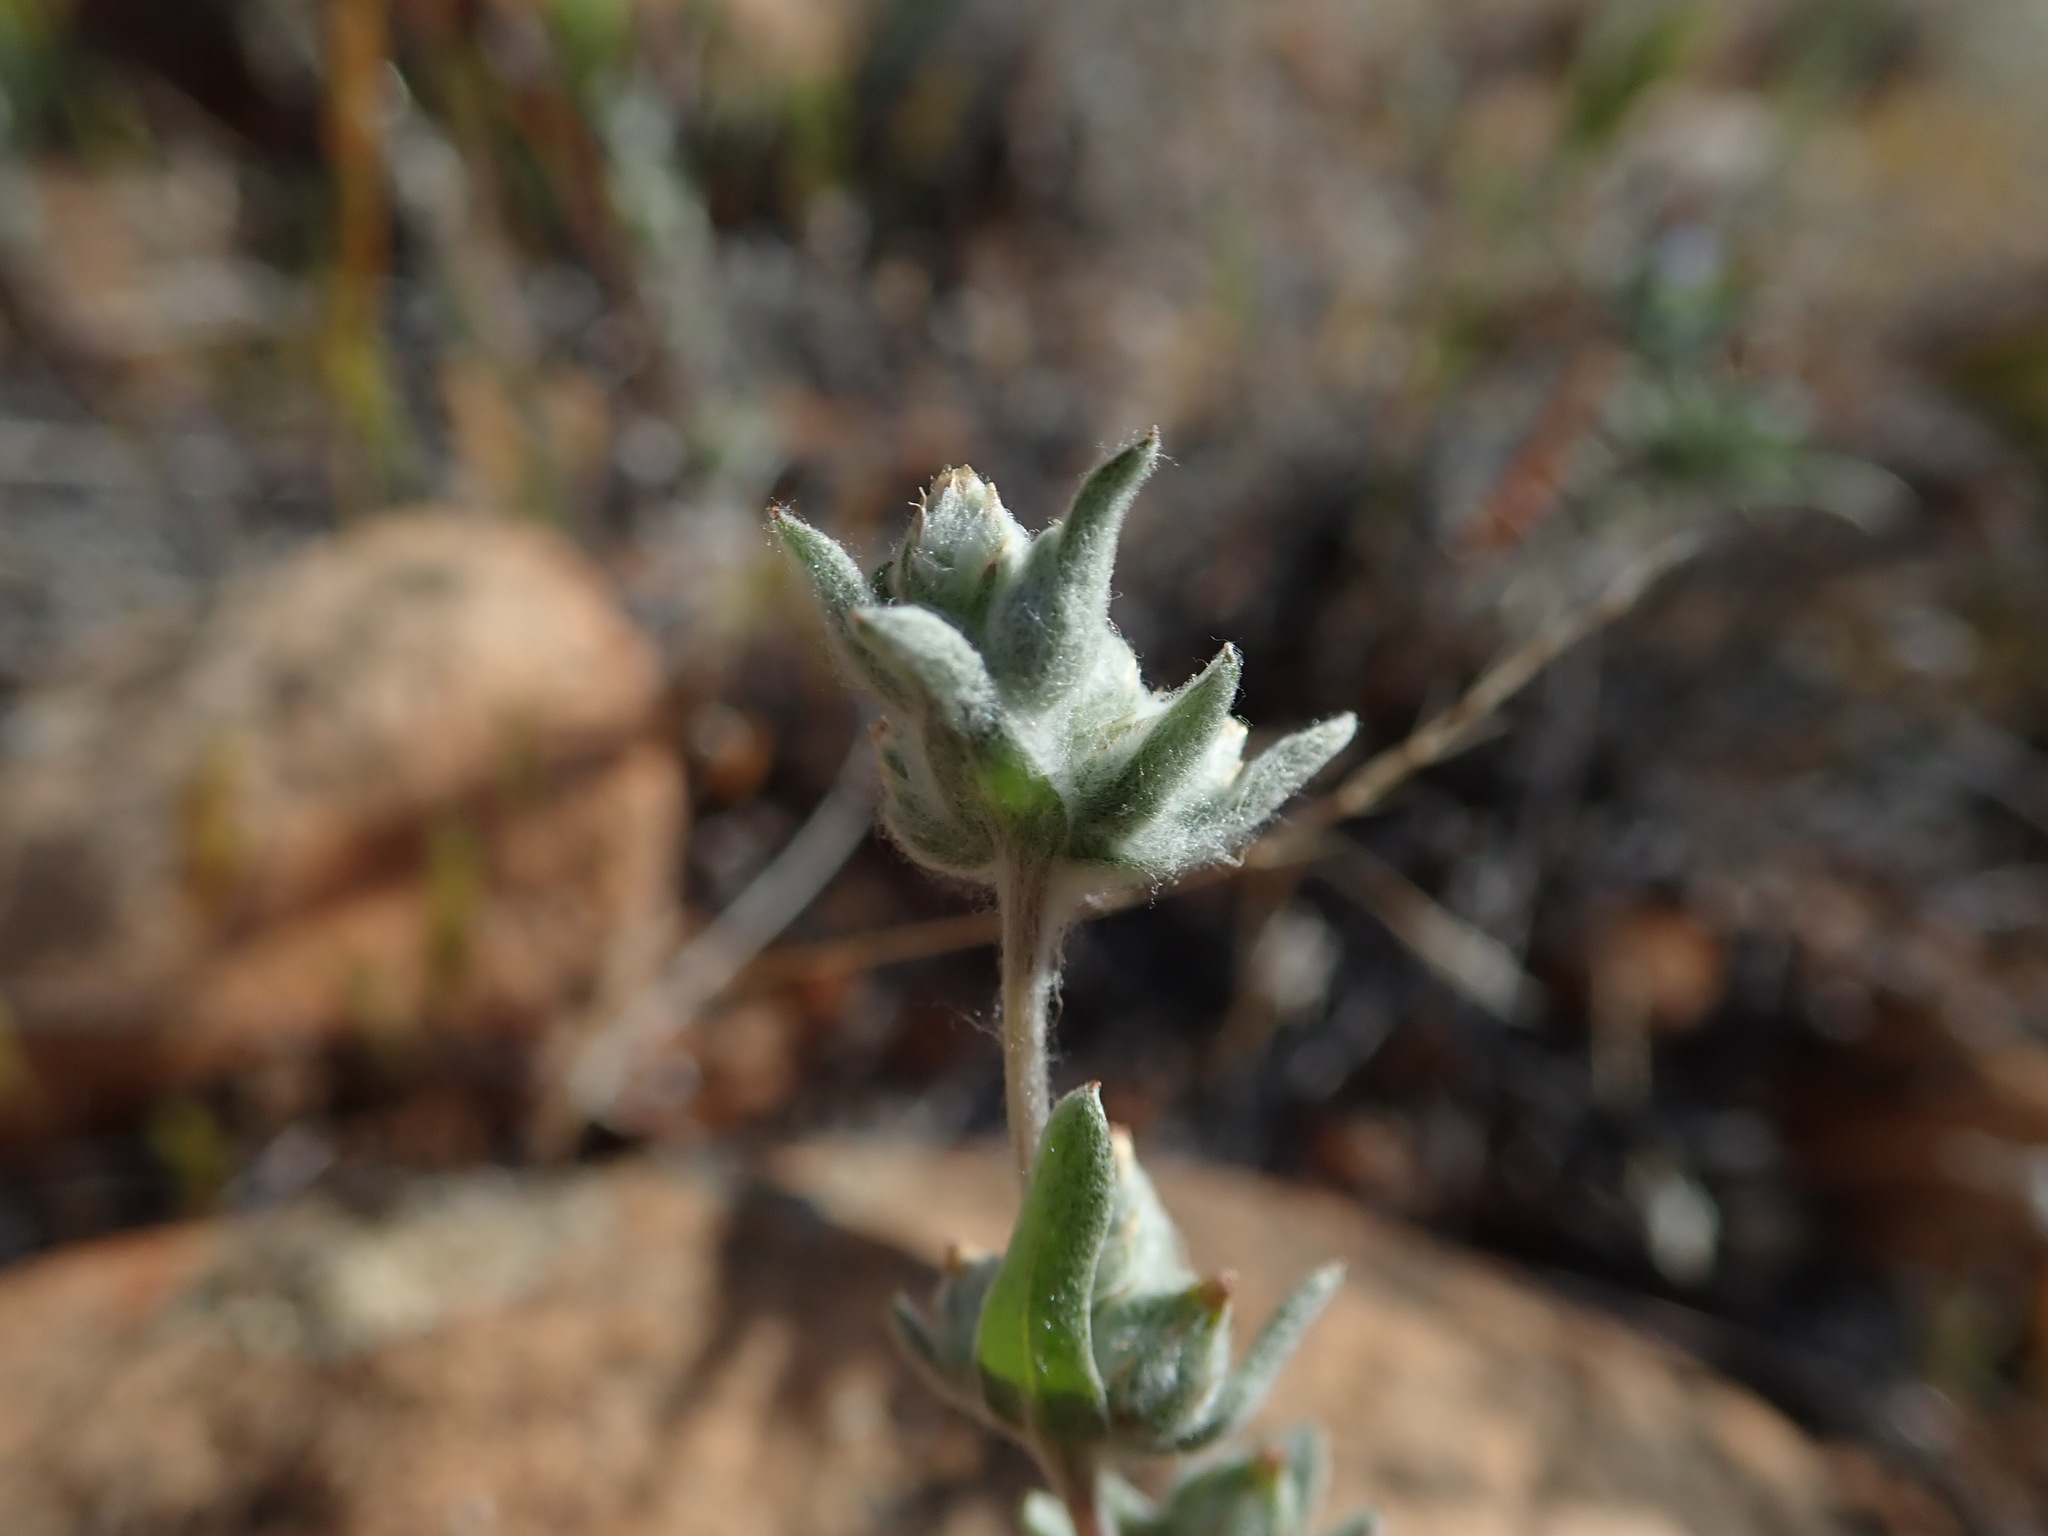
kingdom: Plantae
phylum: Tracheophyta
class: Magnoliopsida
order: Asterales
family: Asteraceae
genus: Logfia
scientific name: Logfia californica
